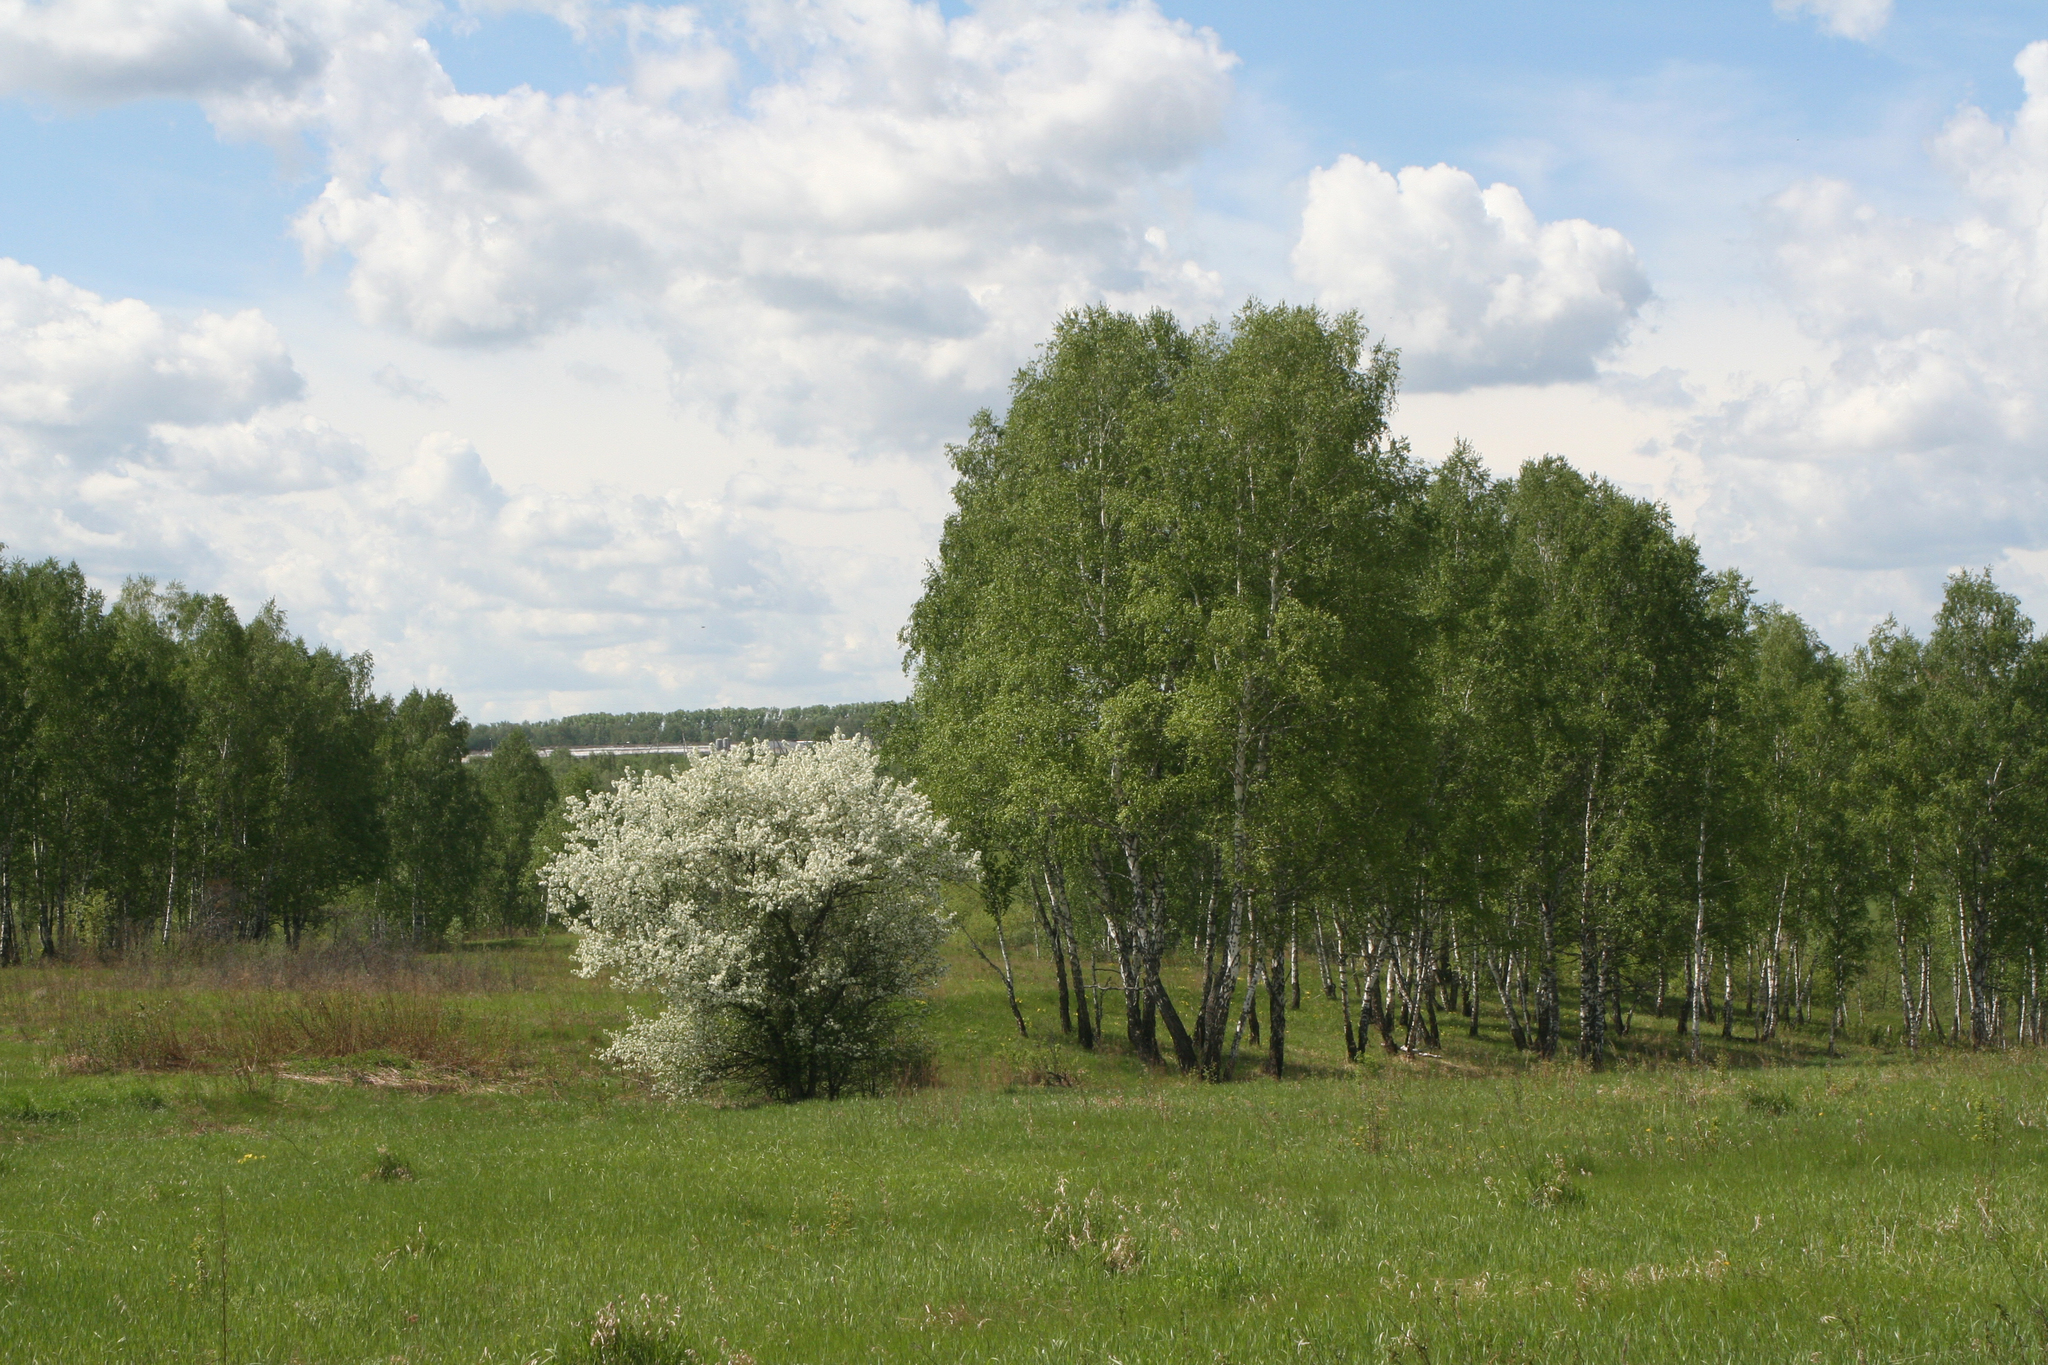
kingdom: Plantae
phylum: Tracheophyta
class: Magnoliopsida
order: Fagales
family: Betulaceae
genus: Betula
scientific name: Betula pendula
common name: Silver birch
